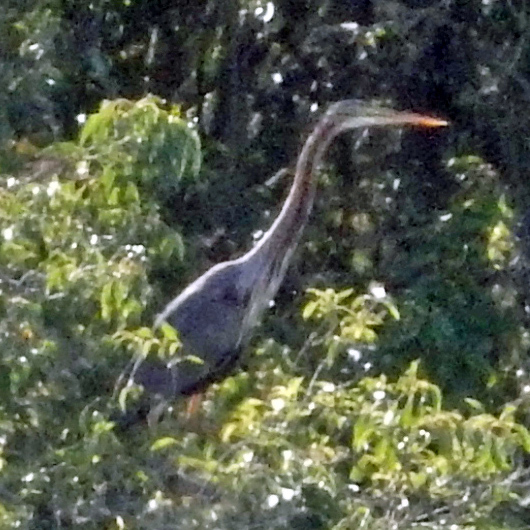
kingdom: Animalia
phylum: Chordata
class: Aves
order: Pelecaniformes
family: Ardeidae
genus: Ardea
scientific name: Ardea purpurea
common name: Purple heron
